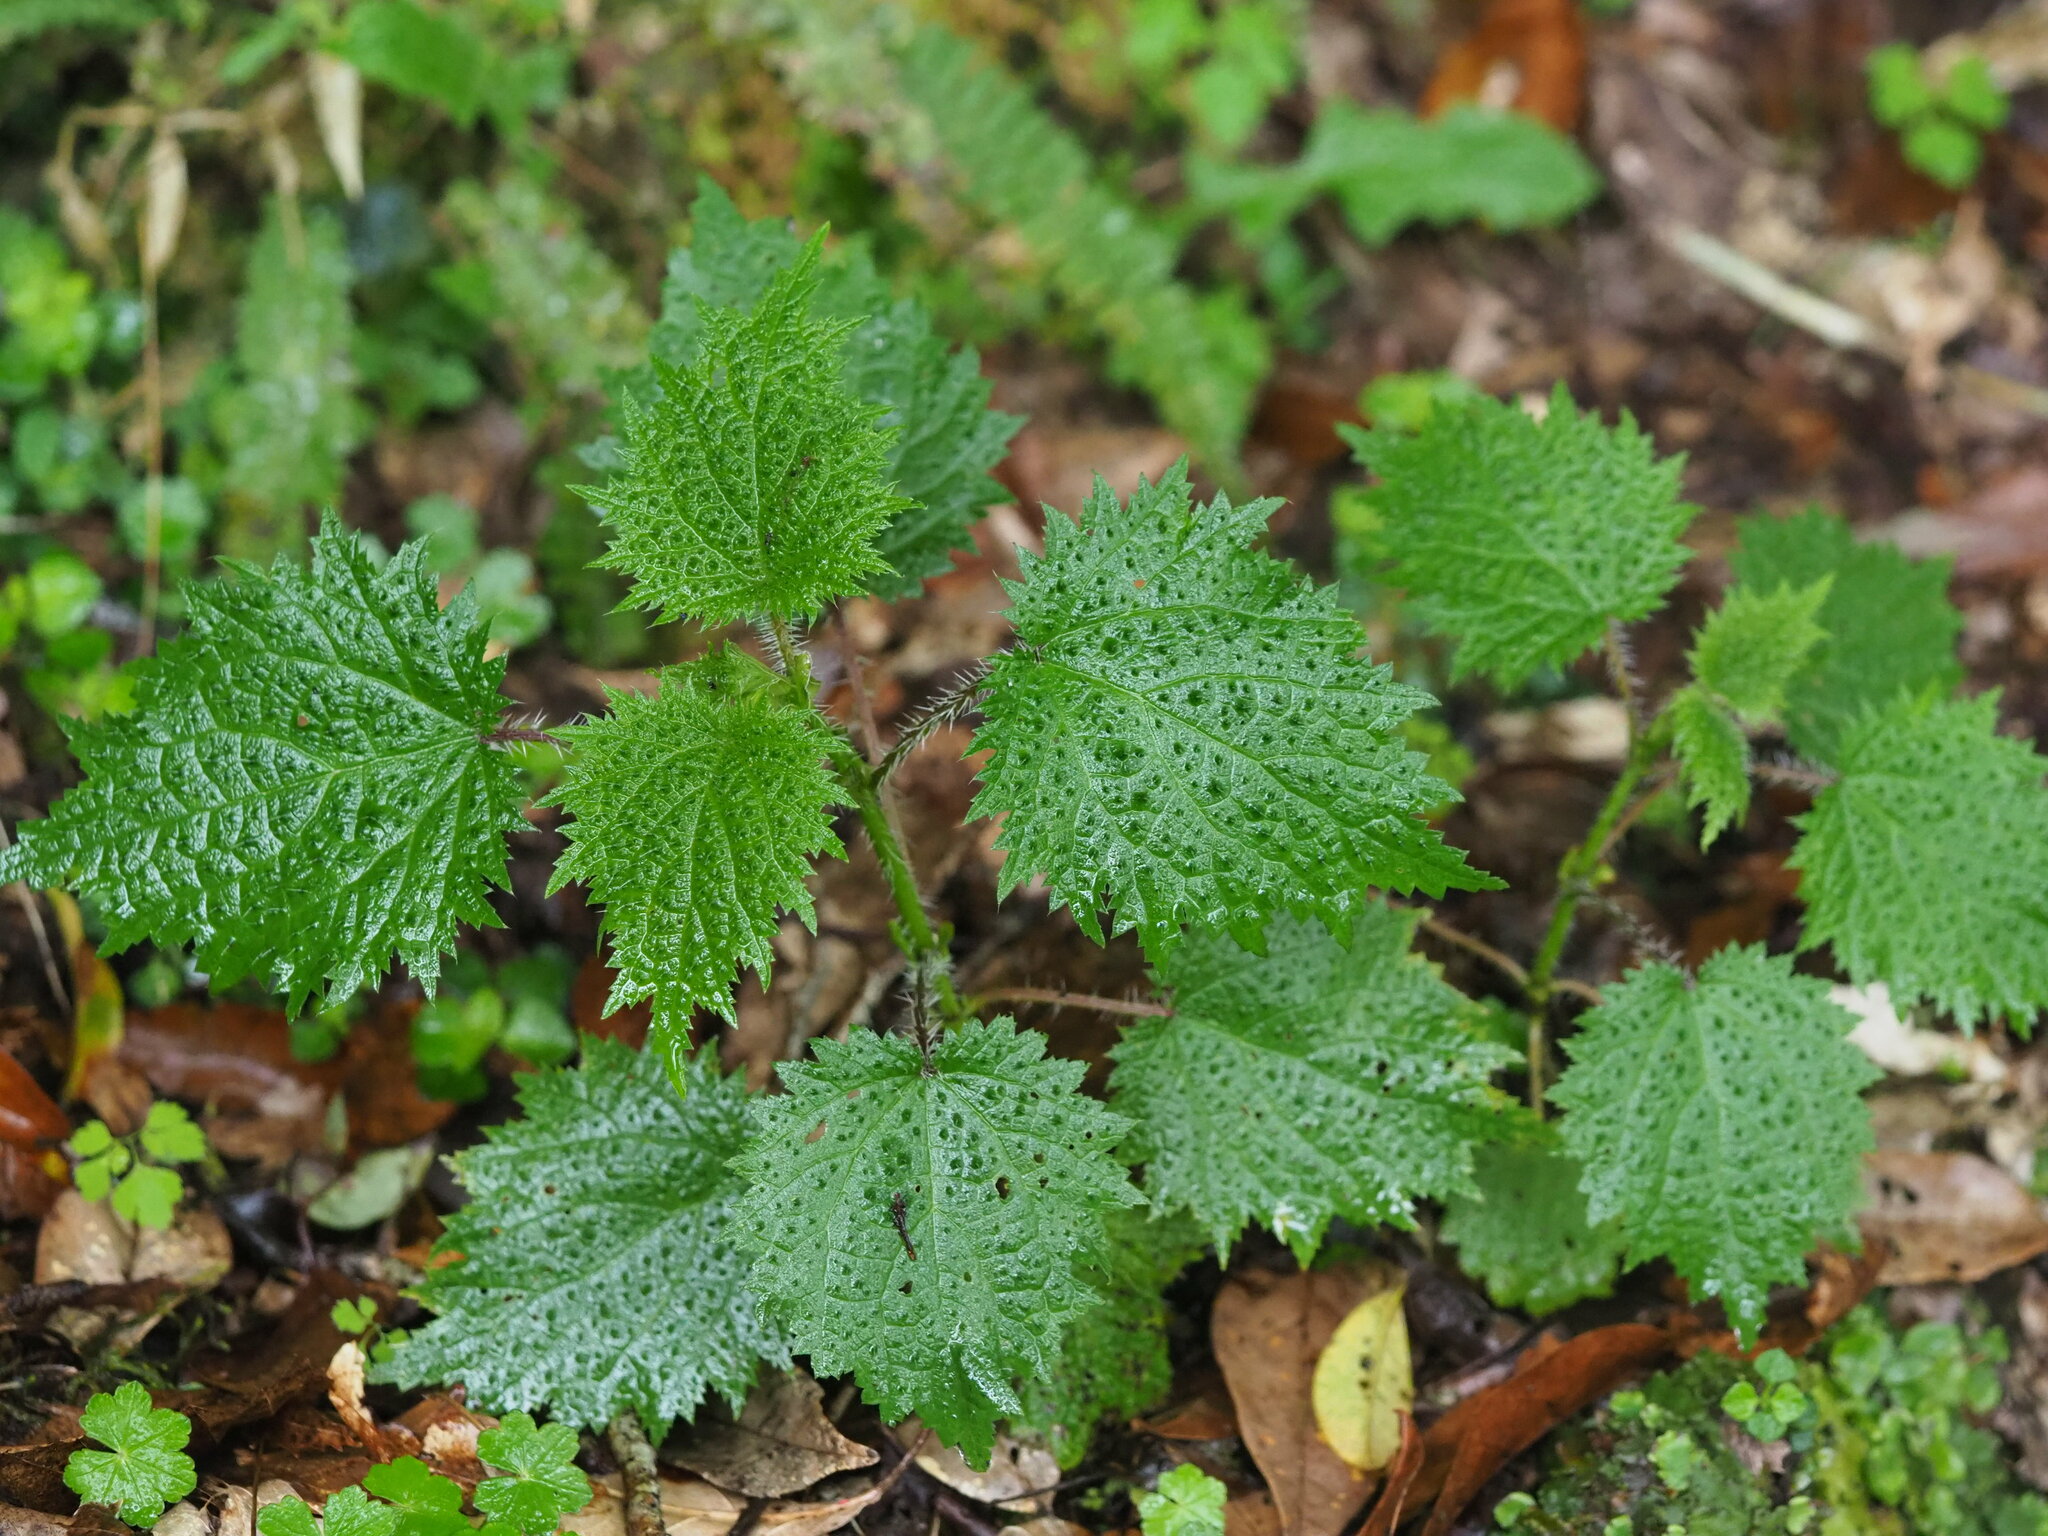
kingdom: Plantae
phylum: Tracheophyta
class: Magnoliopsida
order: Rosales
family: Urticaceae
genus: Urtica
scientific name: Urtica thunbergiana
